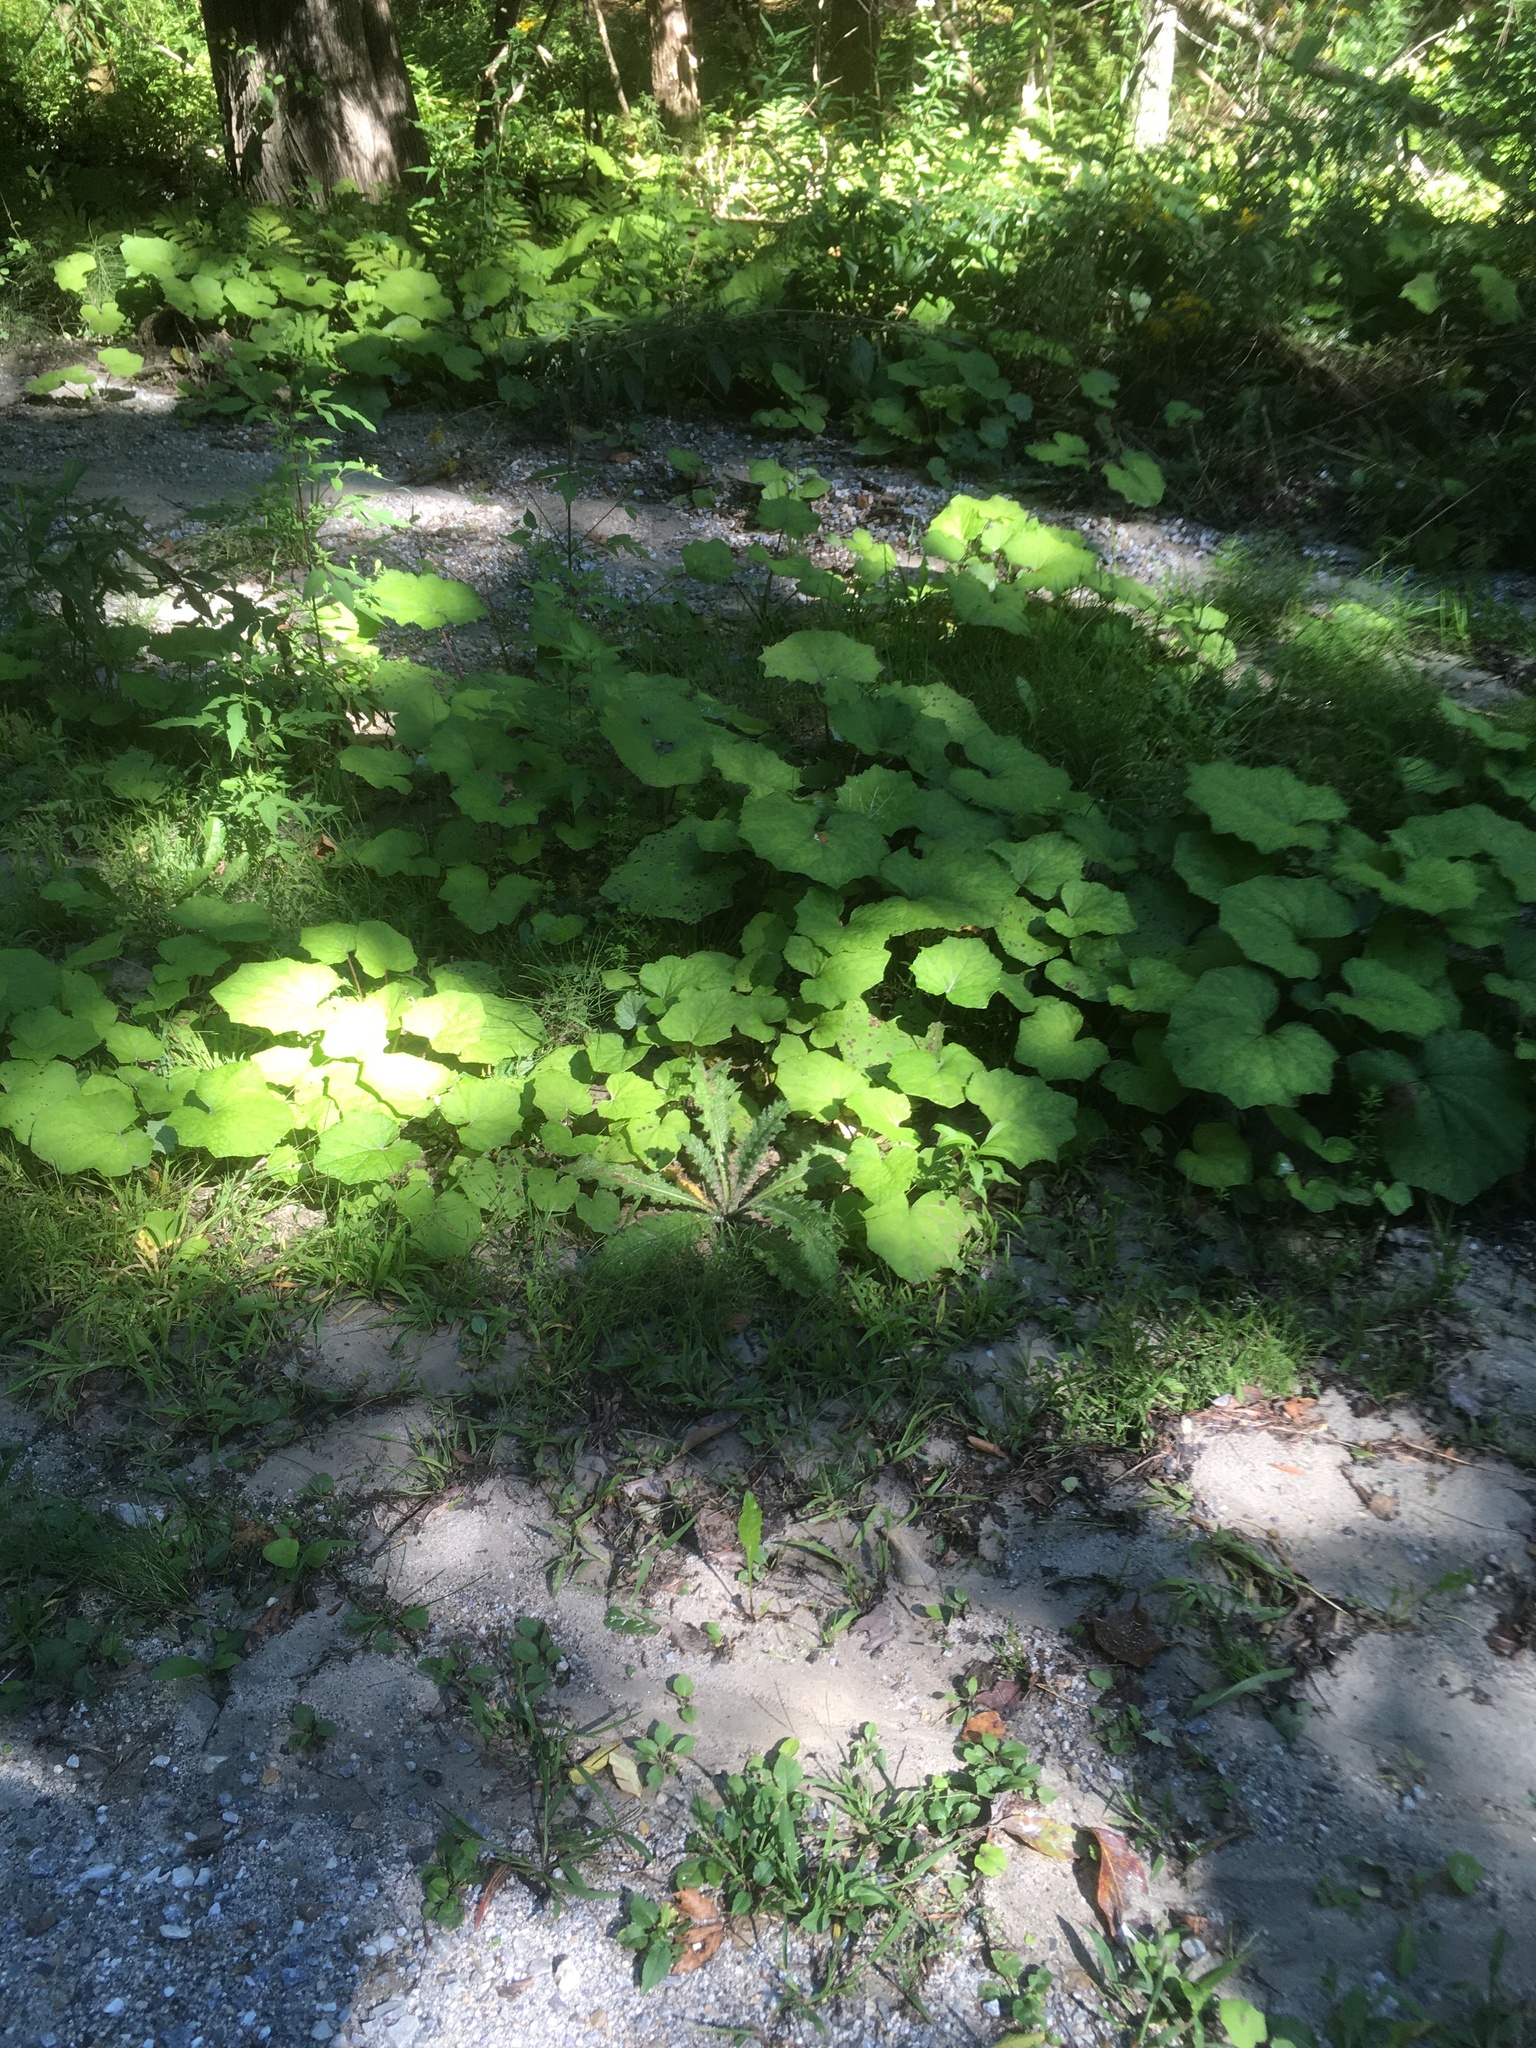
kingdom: Plantae
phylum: Tracheophyta
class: Magnoliopsida
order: Asterales
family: Asteraceae
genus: Tussilago
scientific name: Tussilago farfara
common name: Coltsfoot
